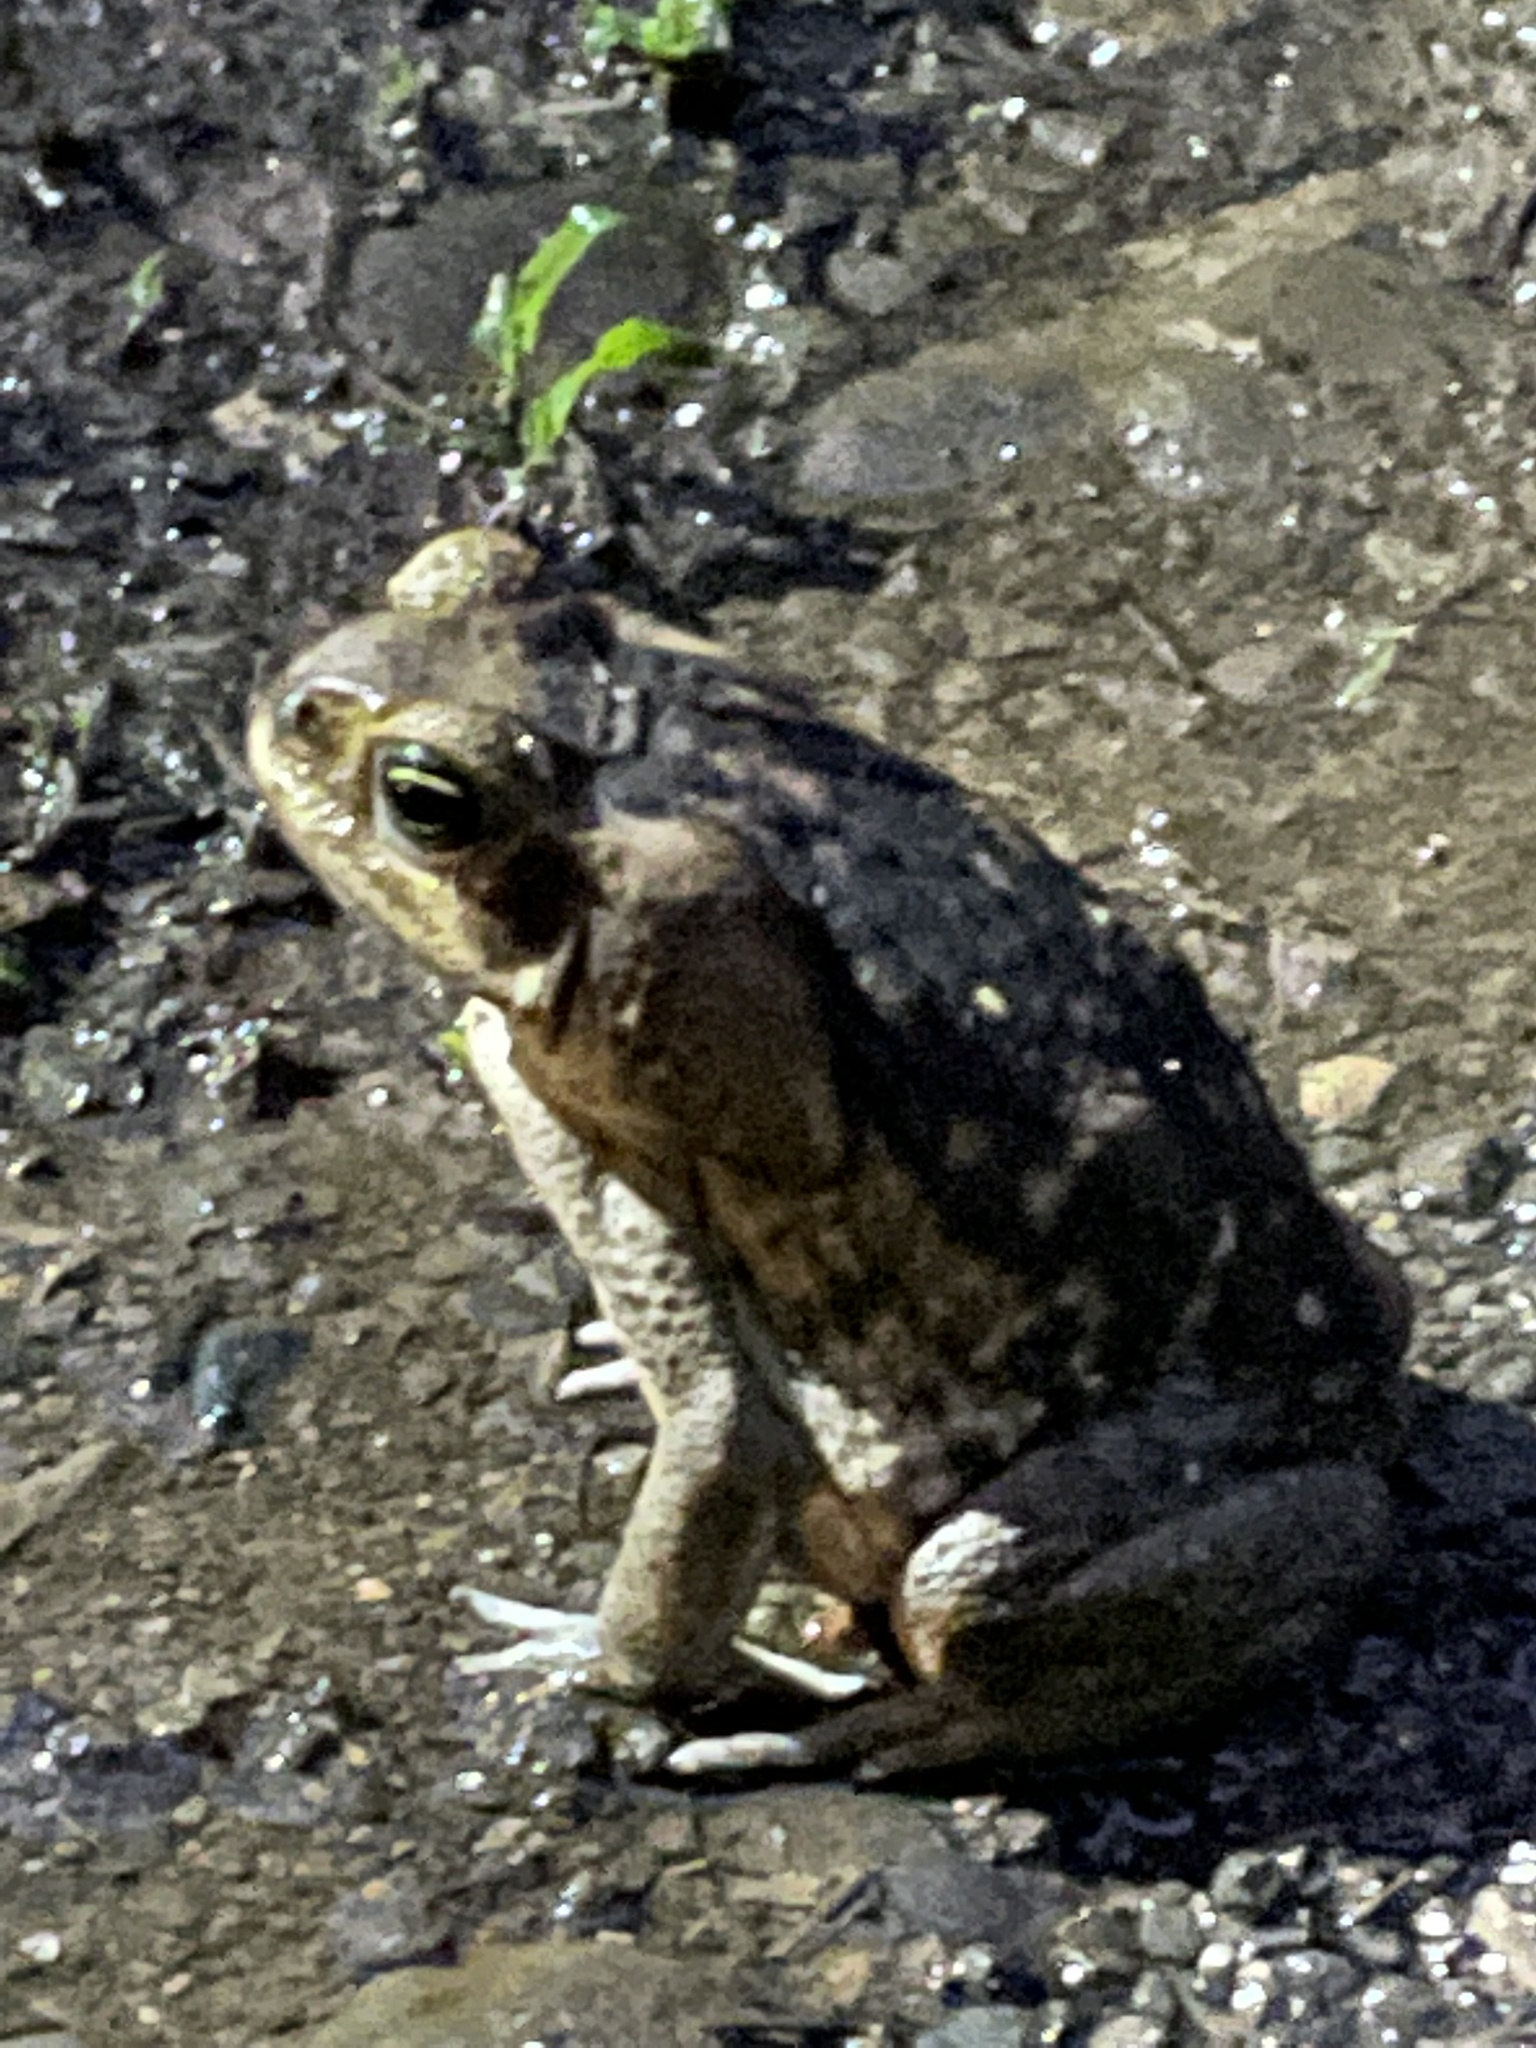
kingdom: Animalia
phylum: Chordata
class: Amphibia
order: Anura
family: Bufonidae
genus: Rhinella
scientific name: Rhinella horribilis
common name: Mesoamerican cane toad
